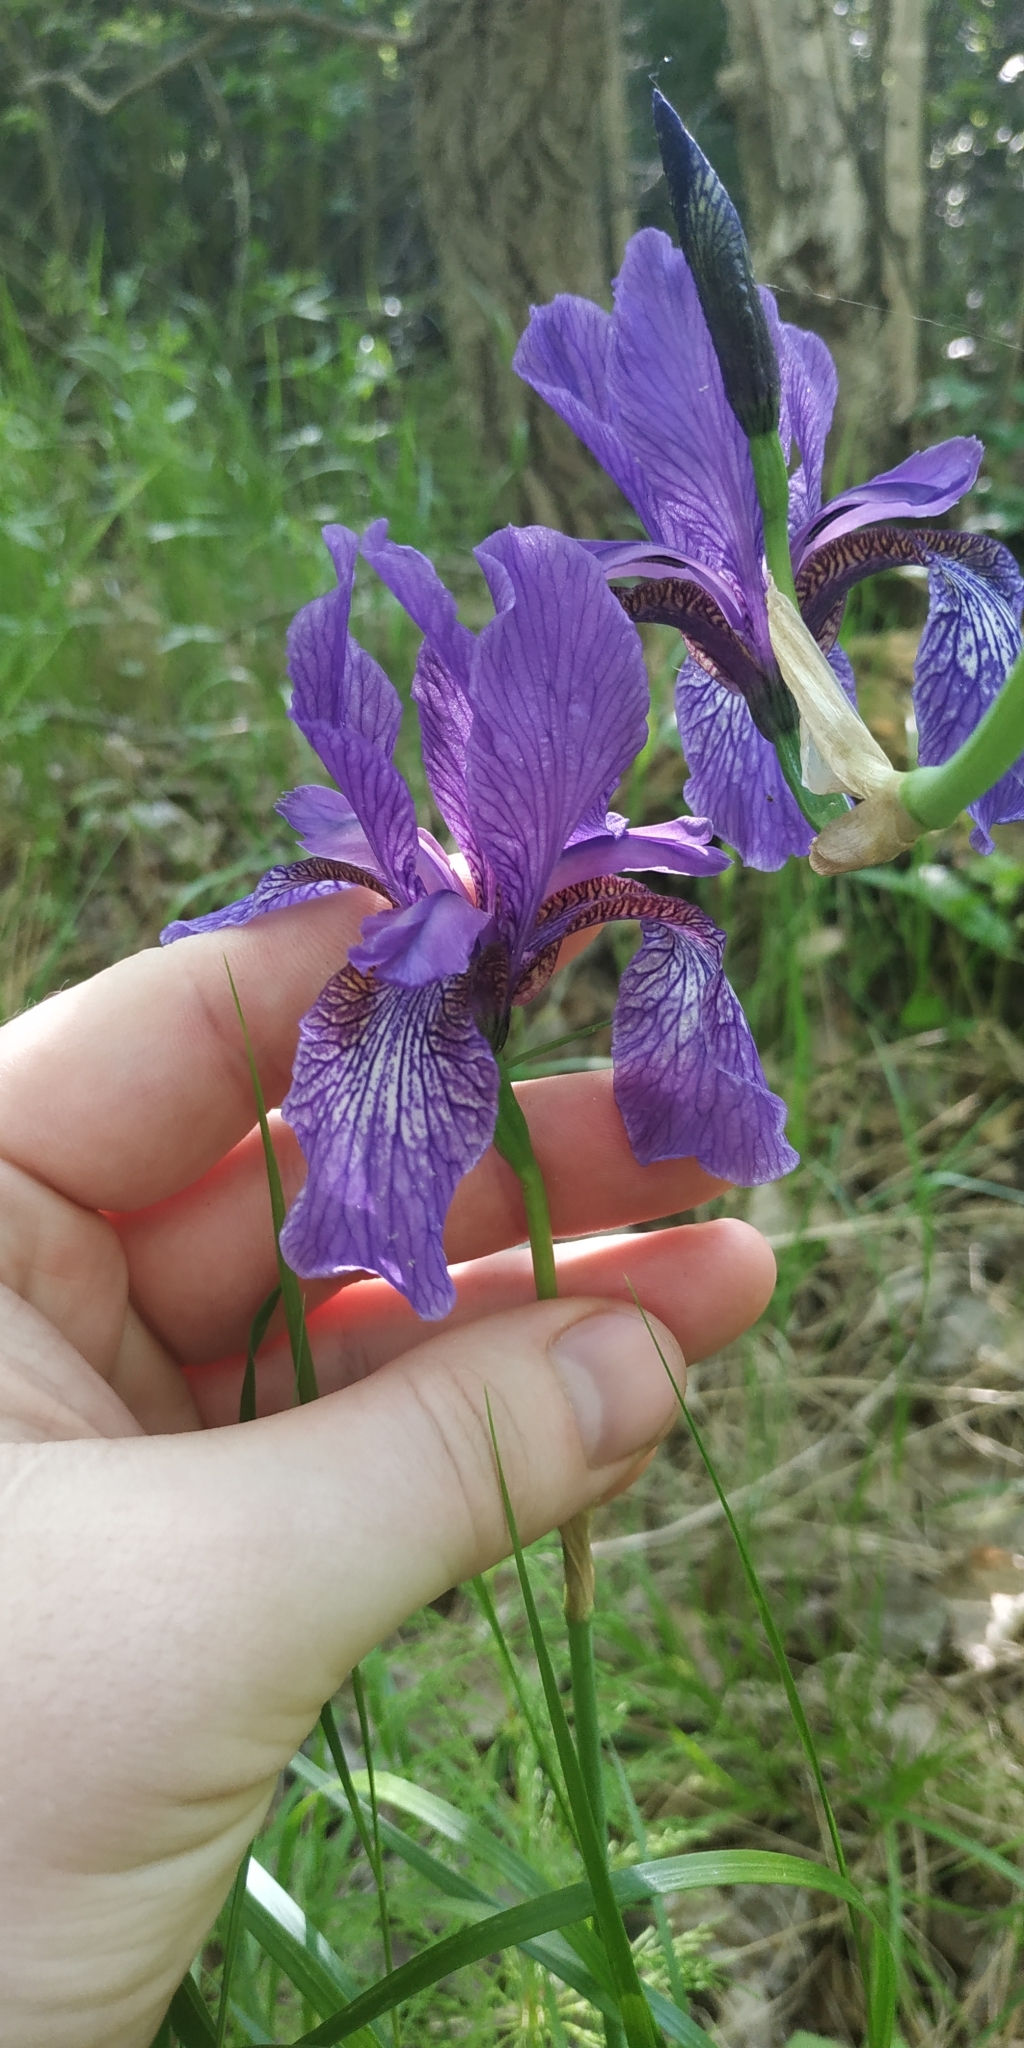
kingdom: Plantae
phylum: Tracheophyta
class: Liliopsida
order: Asparagales
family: Iridaceae
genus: Iris
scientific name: Iris sibirica
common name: Siberian iris
